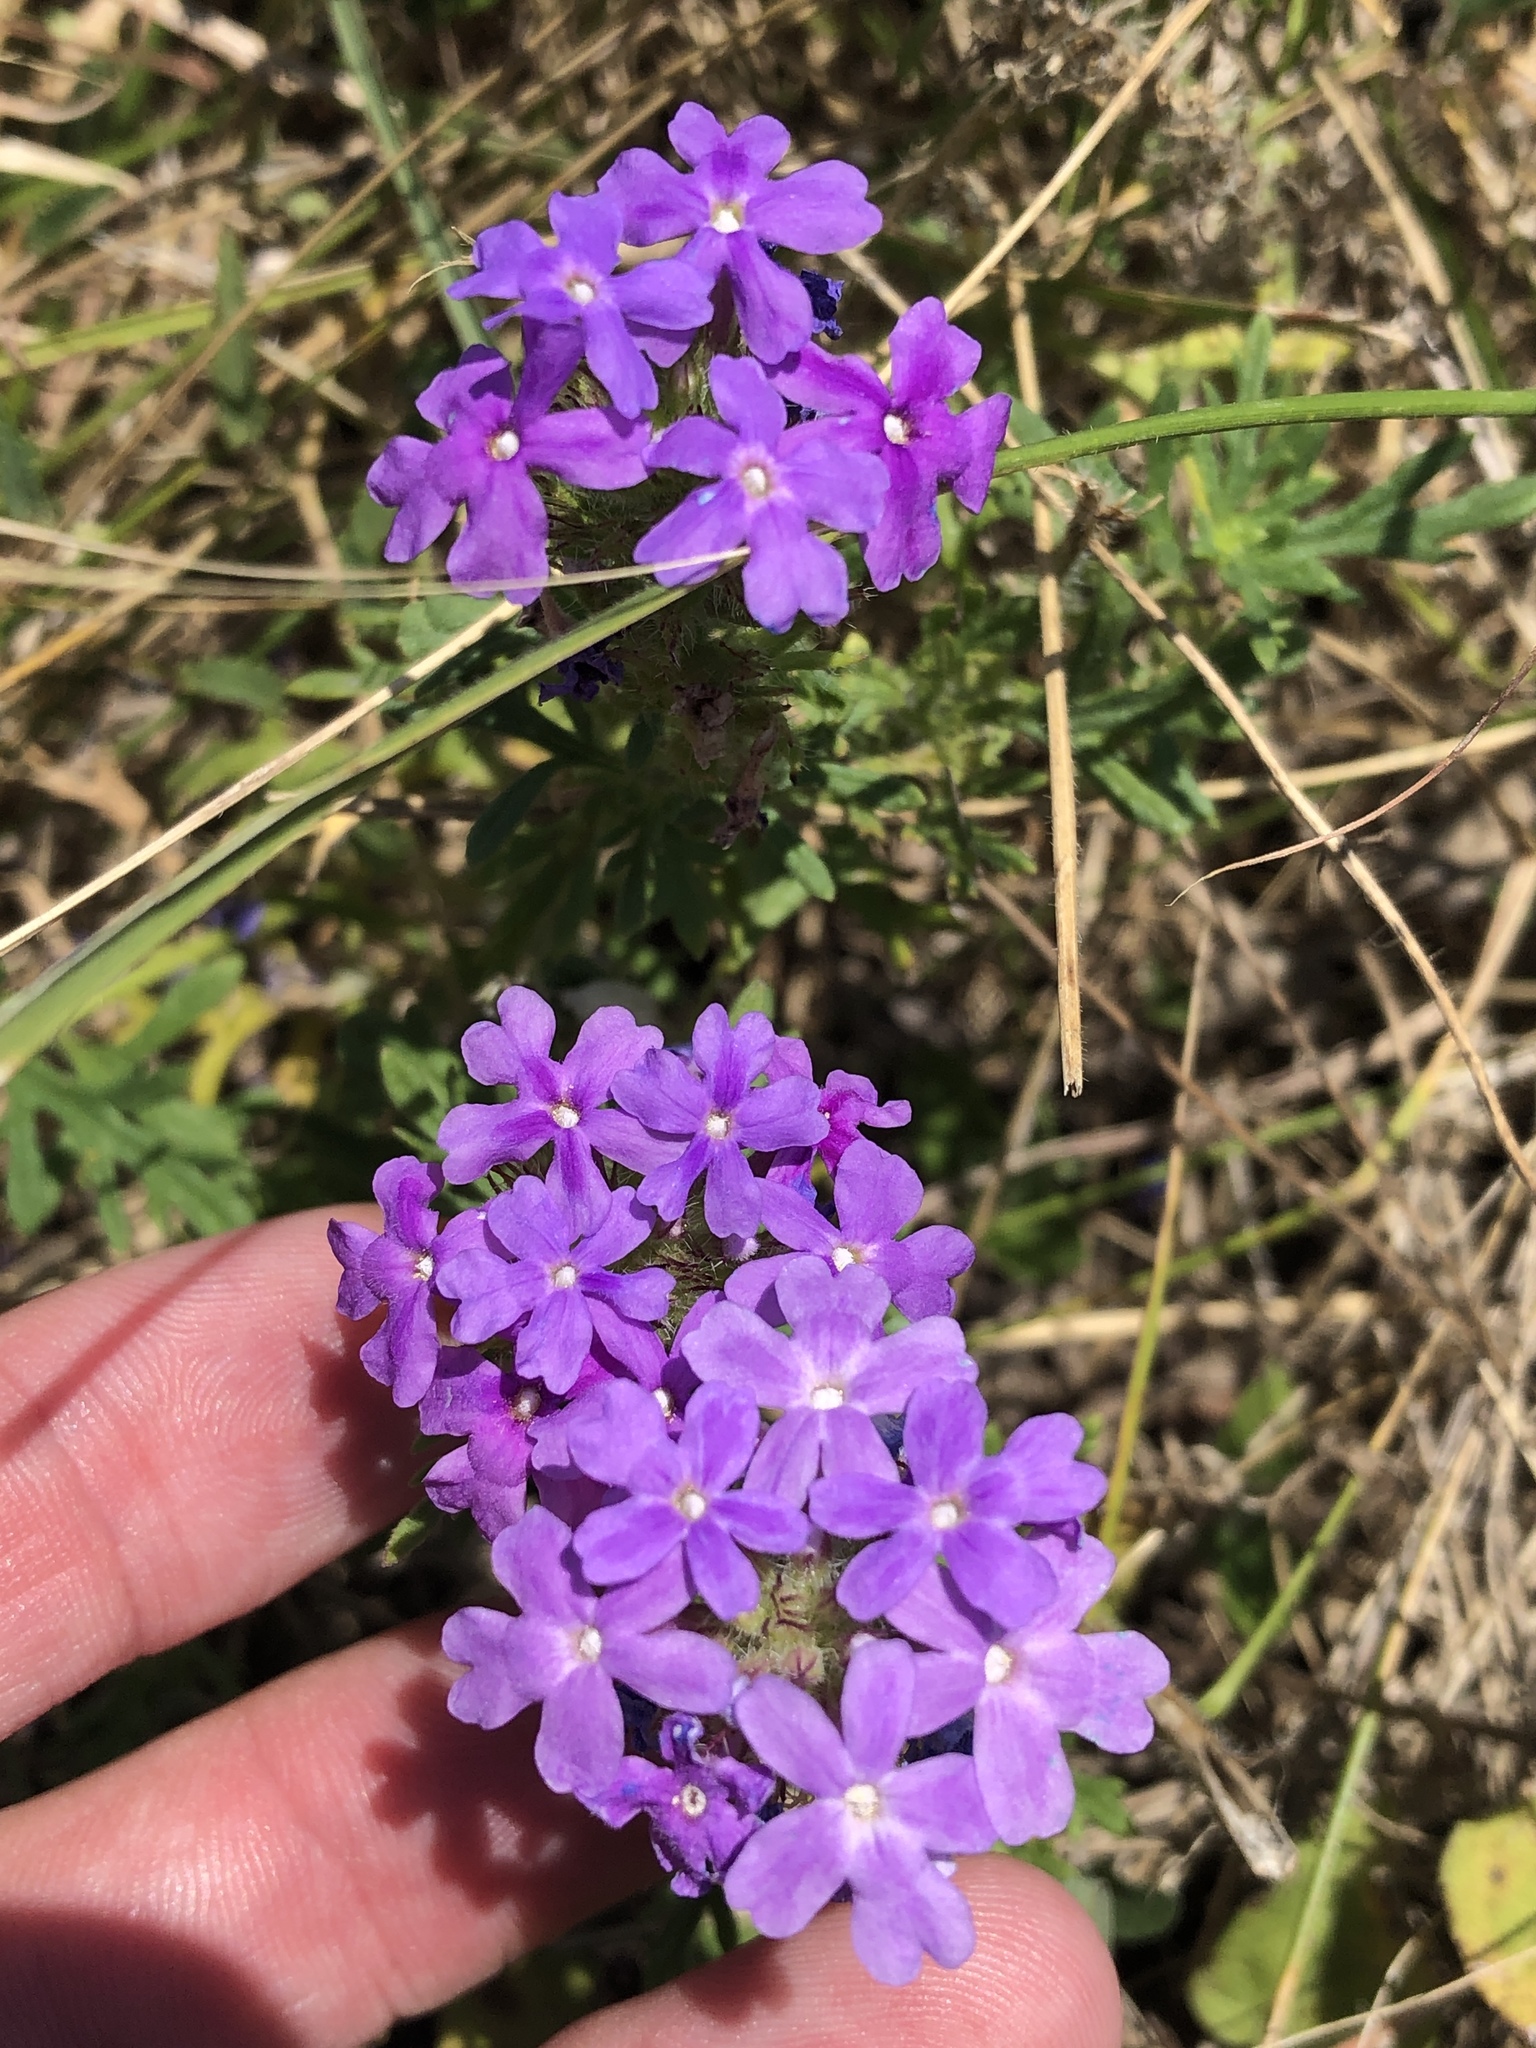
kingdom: Plantae
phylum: Tracheophyta
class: Magnoliopsida
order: Lamiales
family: Verbenaceae
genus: Verbena
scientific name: Verbena bipinnatifida
